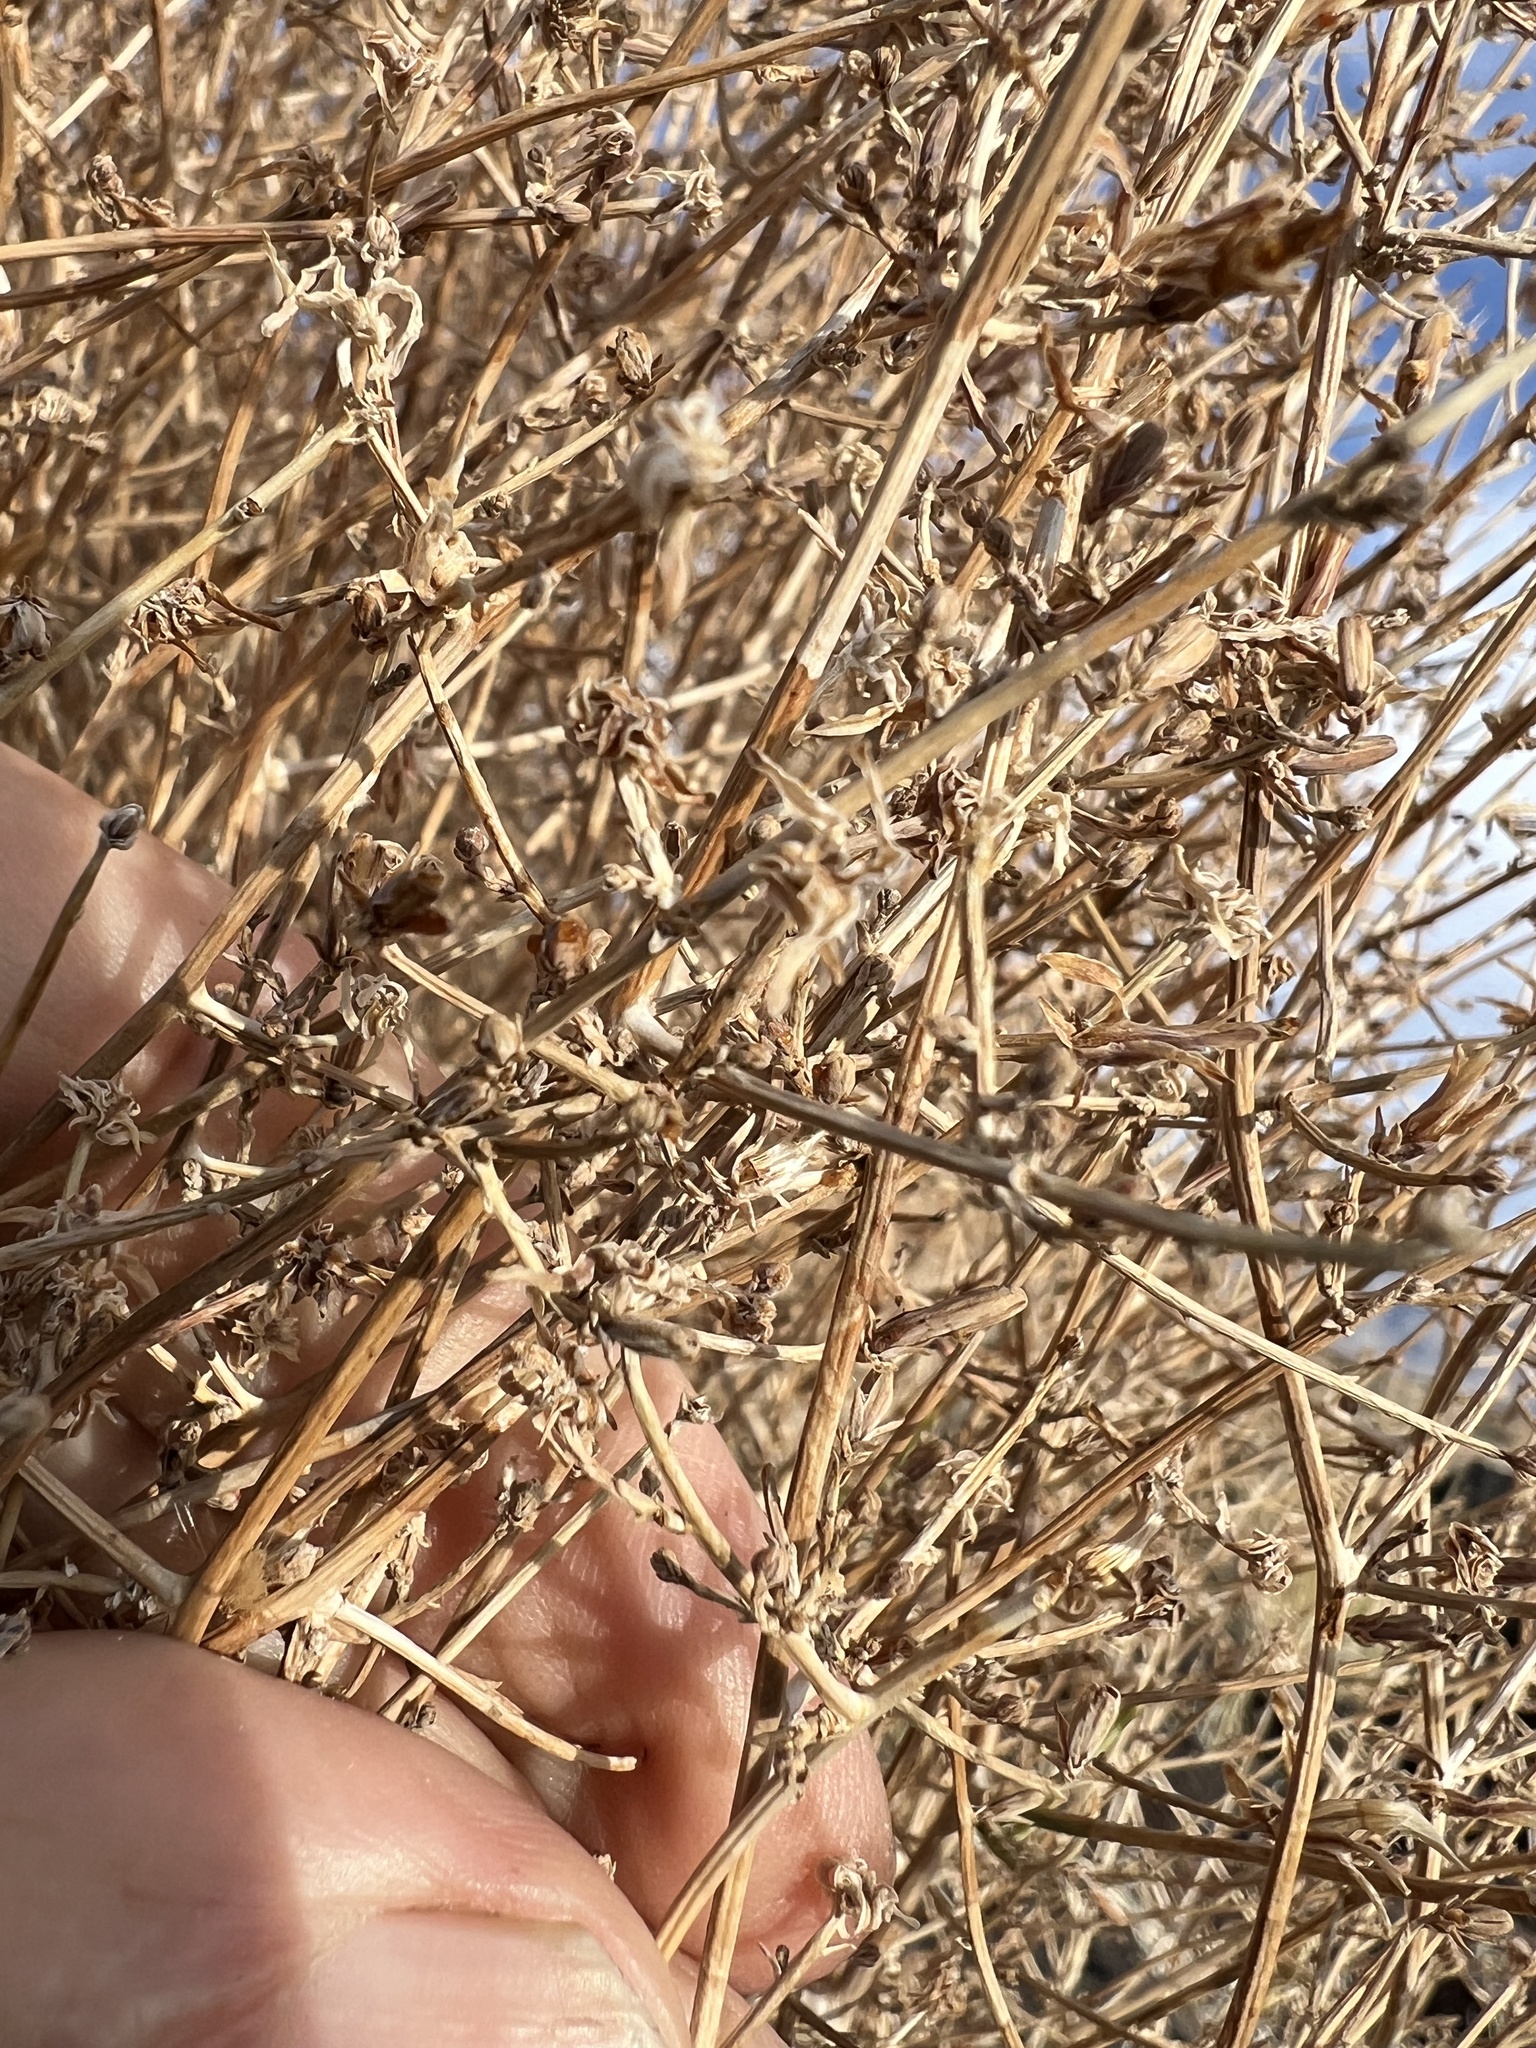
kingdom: Plantae
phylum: Tracheophyta
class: Magnoliopsida
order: Asterales
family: Asteraceae
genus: Stephanomeria
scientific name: Stephanomeria pauciflora
